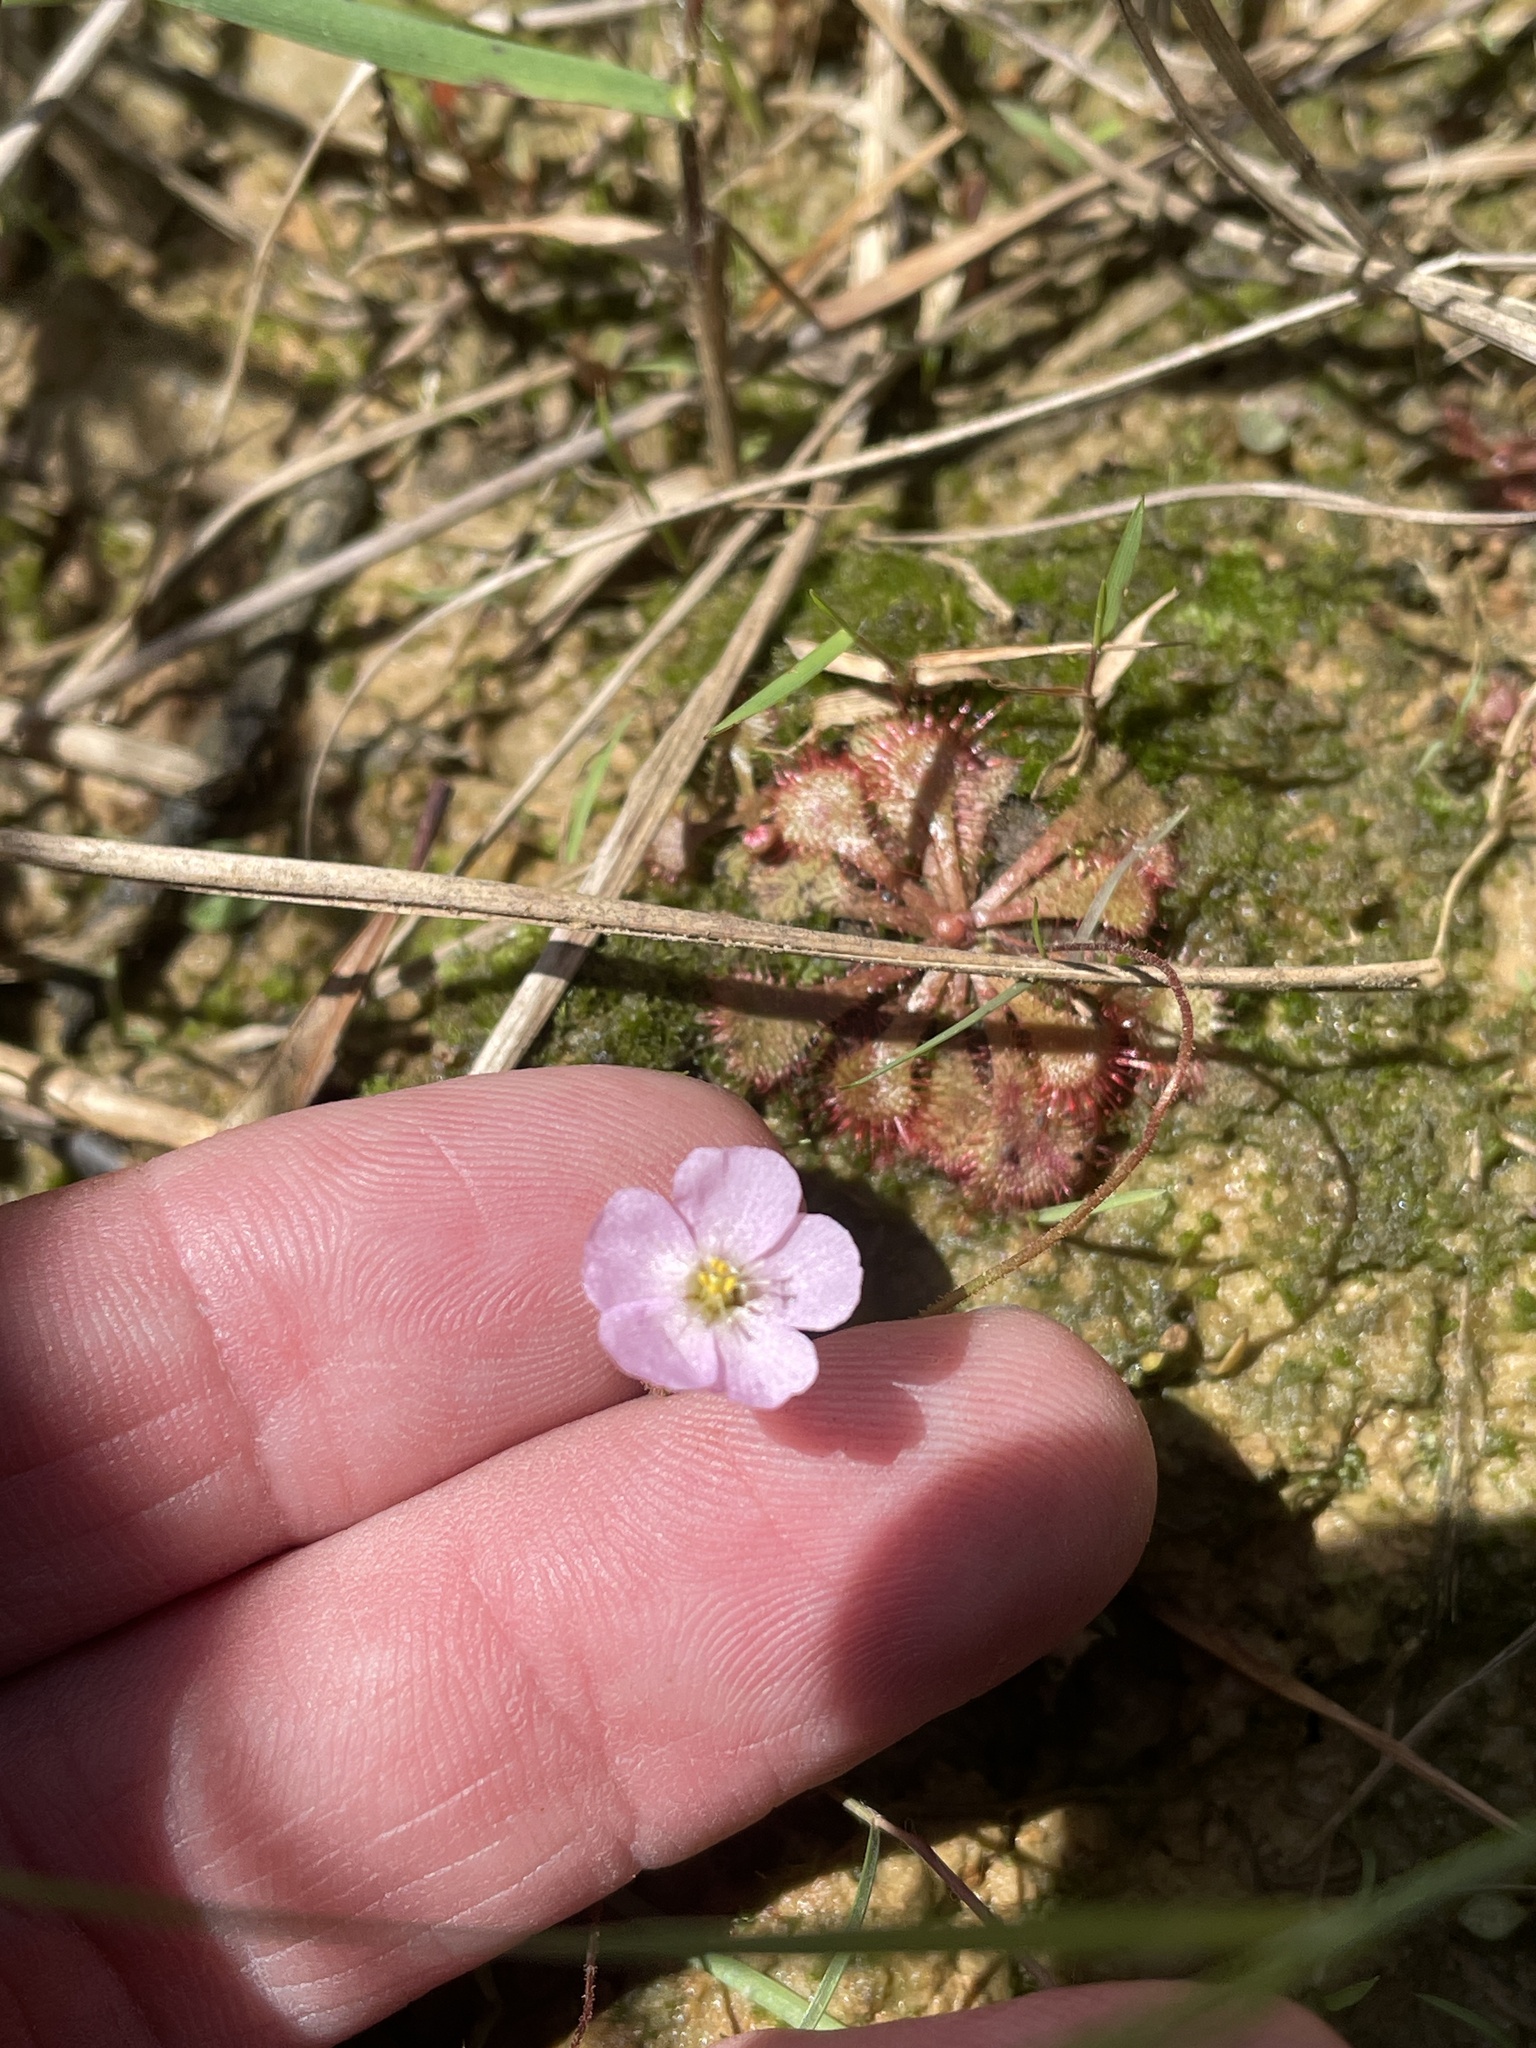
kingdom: Plantae
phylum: Tracheophyta
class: Magnoliopsida
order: Caryophyllales
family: Droseraceae
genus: Drosera
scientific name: Drosera brevifolia
